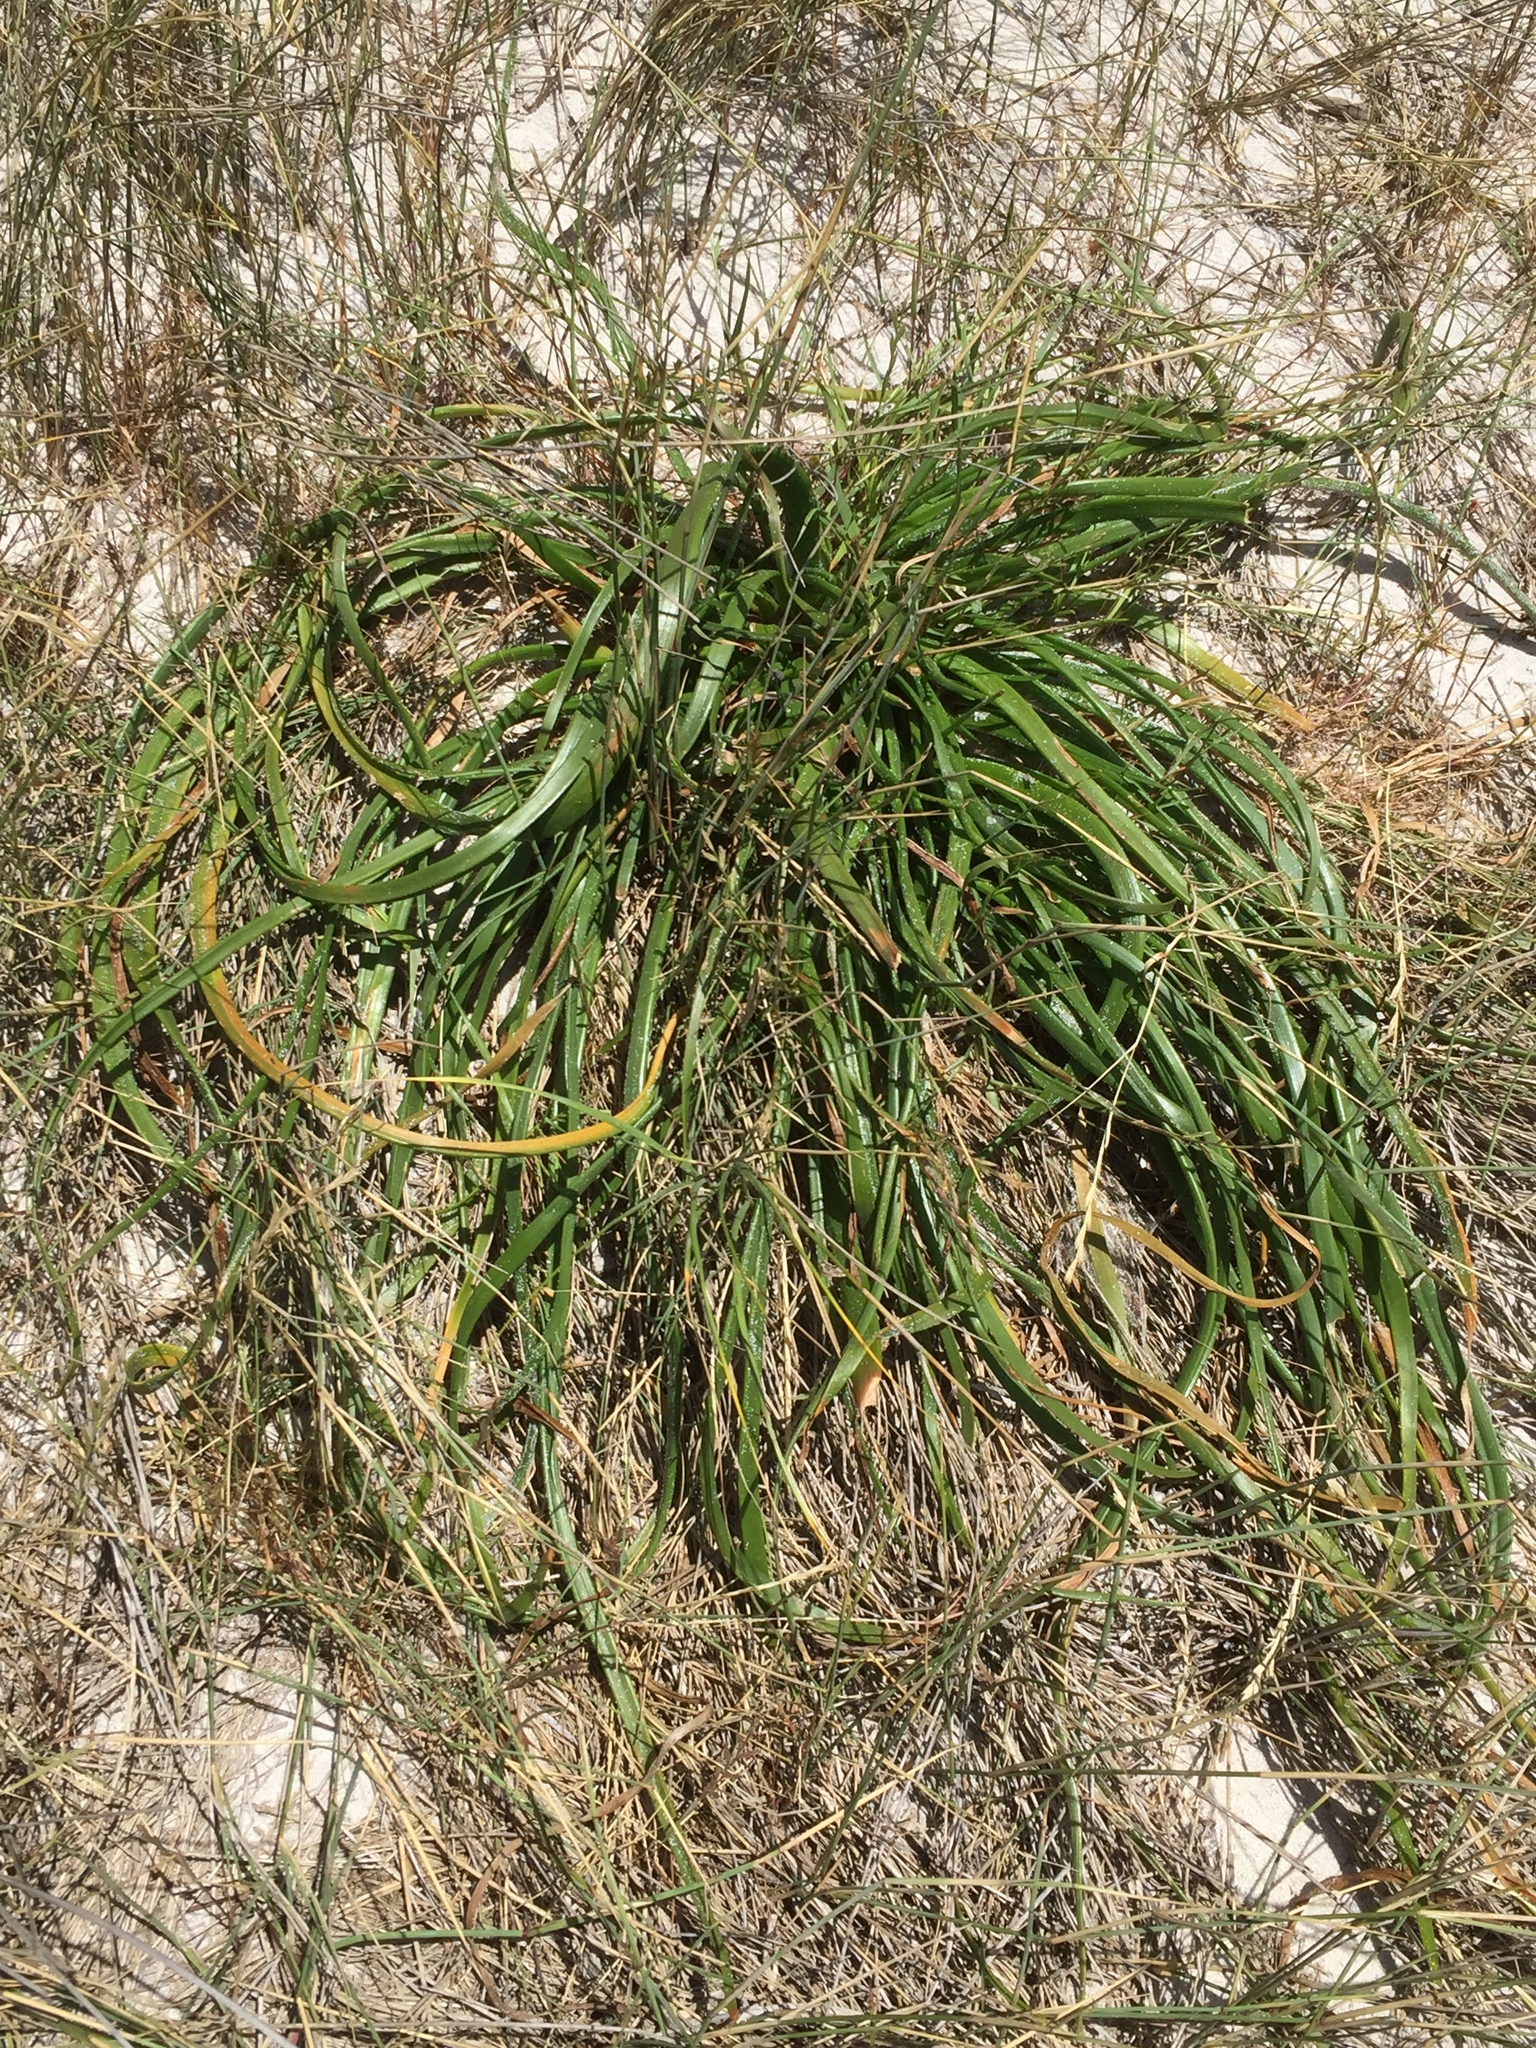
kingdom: Plantae
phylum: Tracheophyta
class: Liliopsida
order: Asparagales
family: Asphodelaceae
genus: Trachyandra
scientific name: Trachyandra divaricata
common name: Dune onionweed
